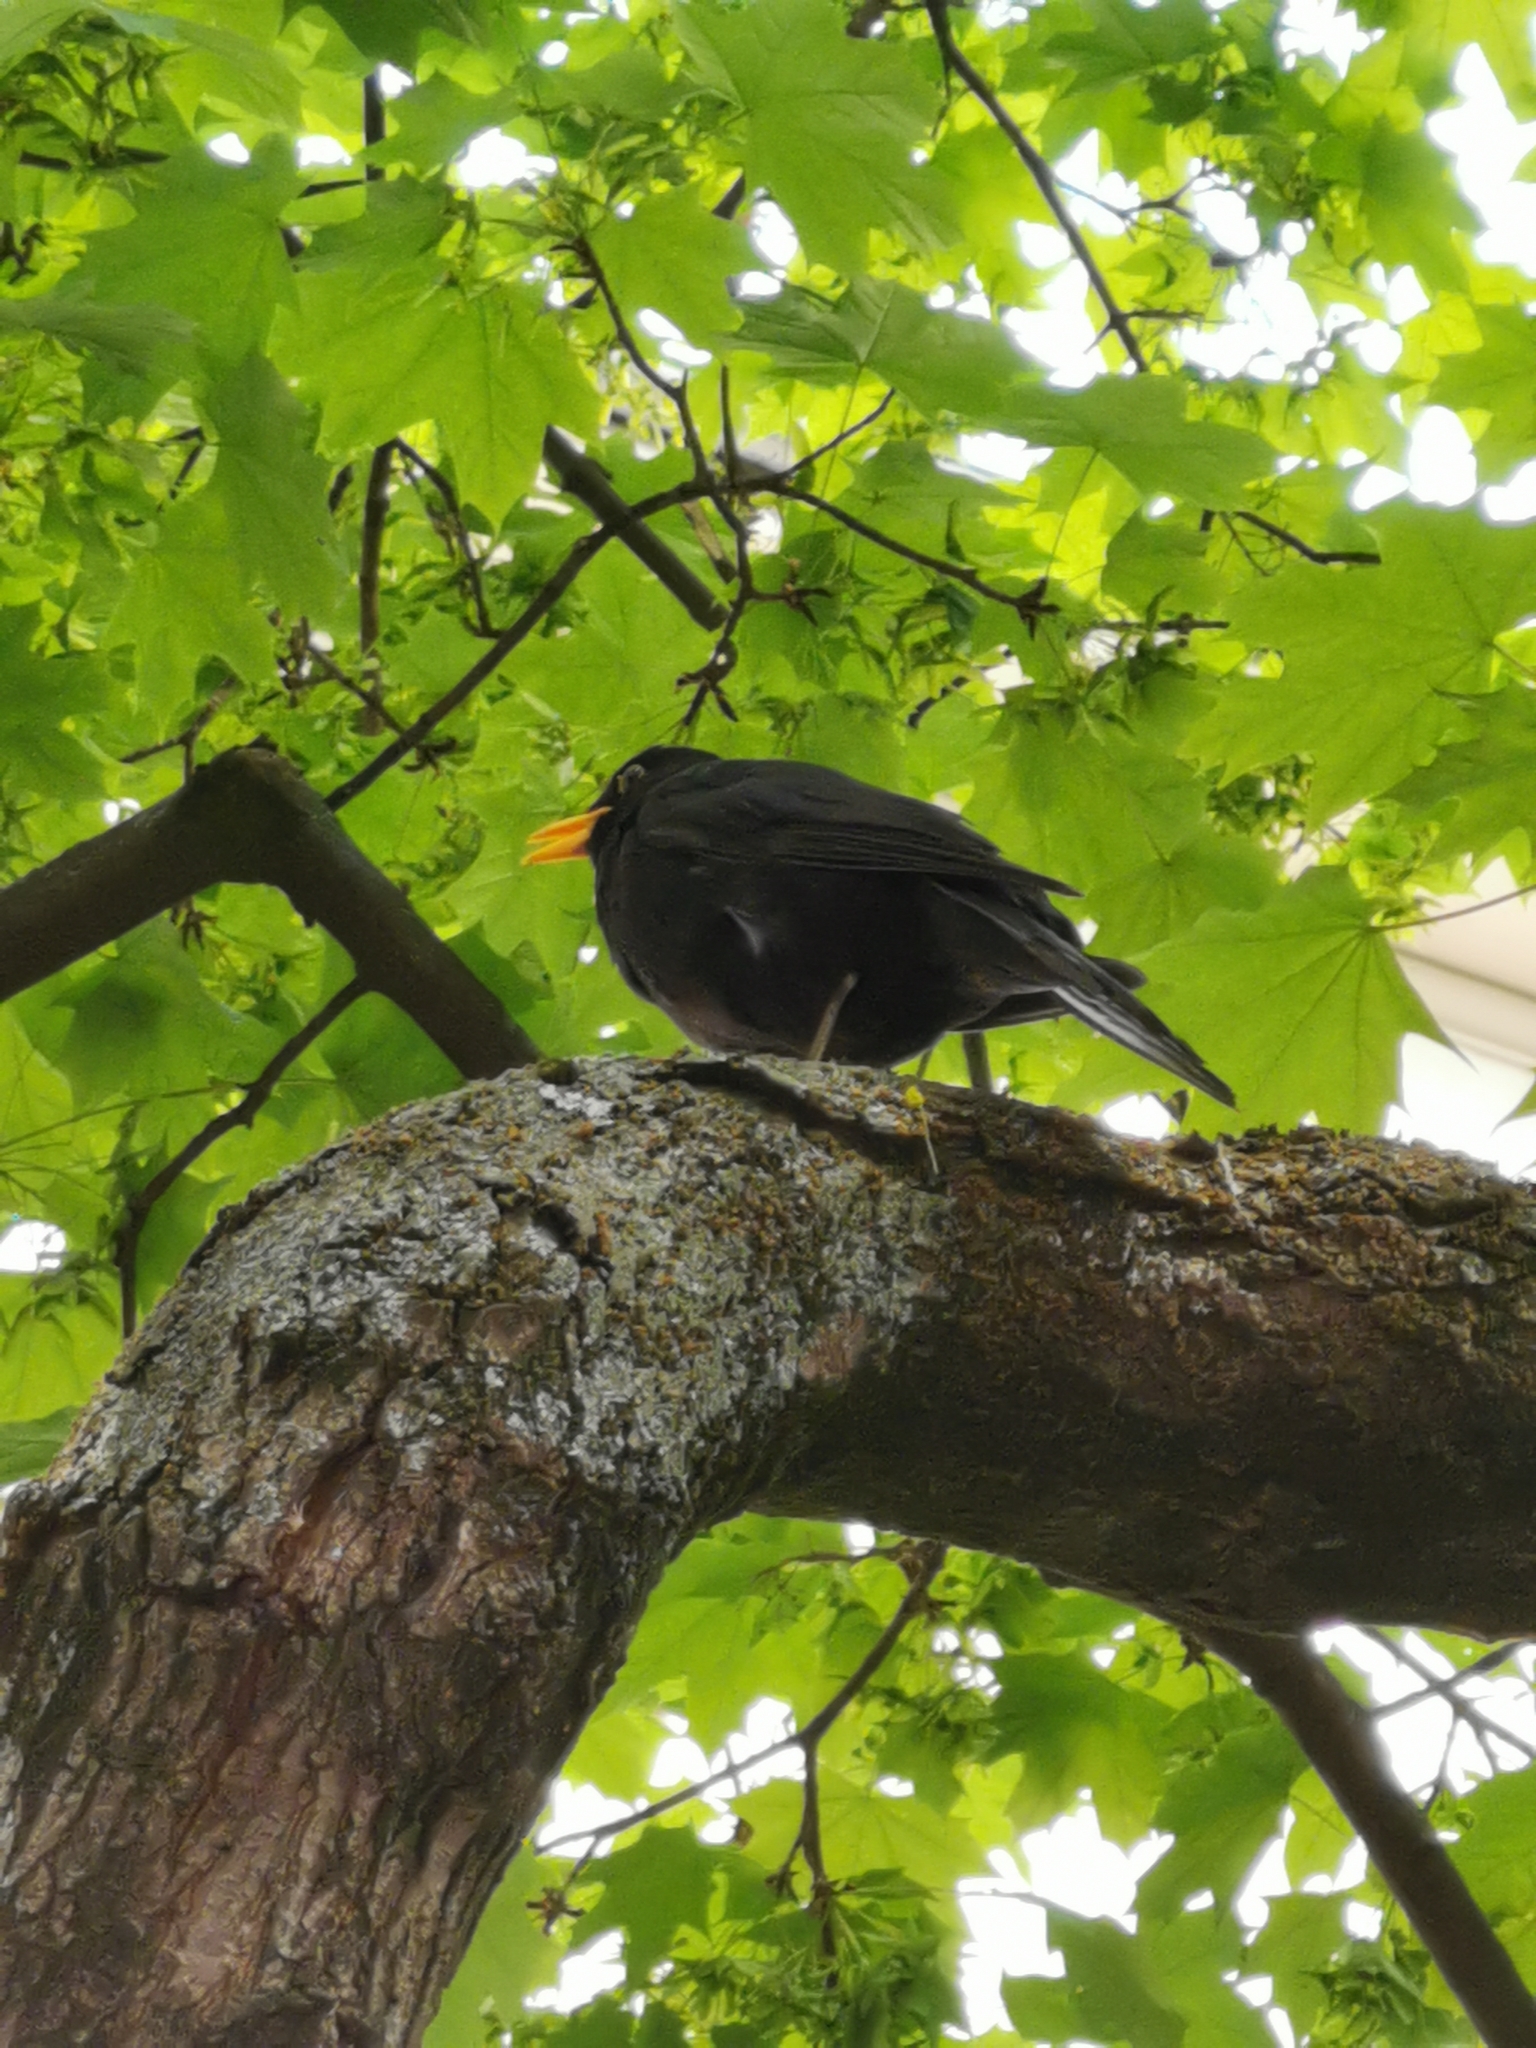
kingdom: Animalia
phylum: Chordata
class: Aves
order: Passeriformes
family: Turdidae
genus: Turdus
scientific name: Turdus merula
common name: Common blackbird
